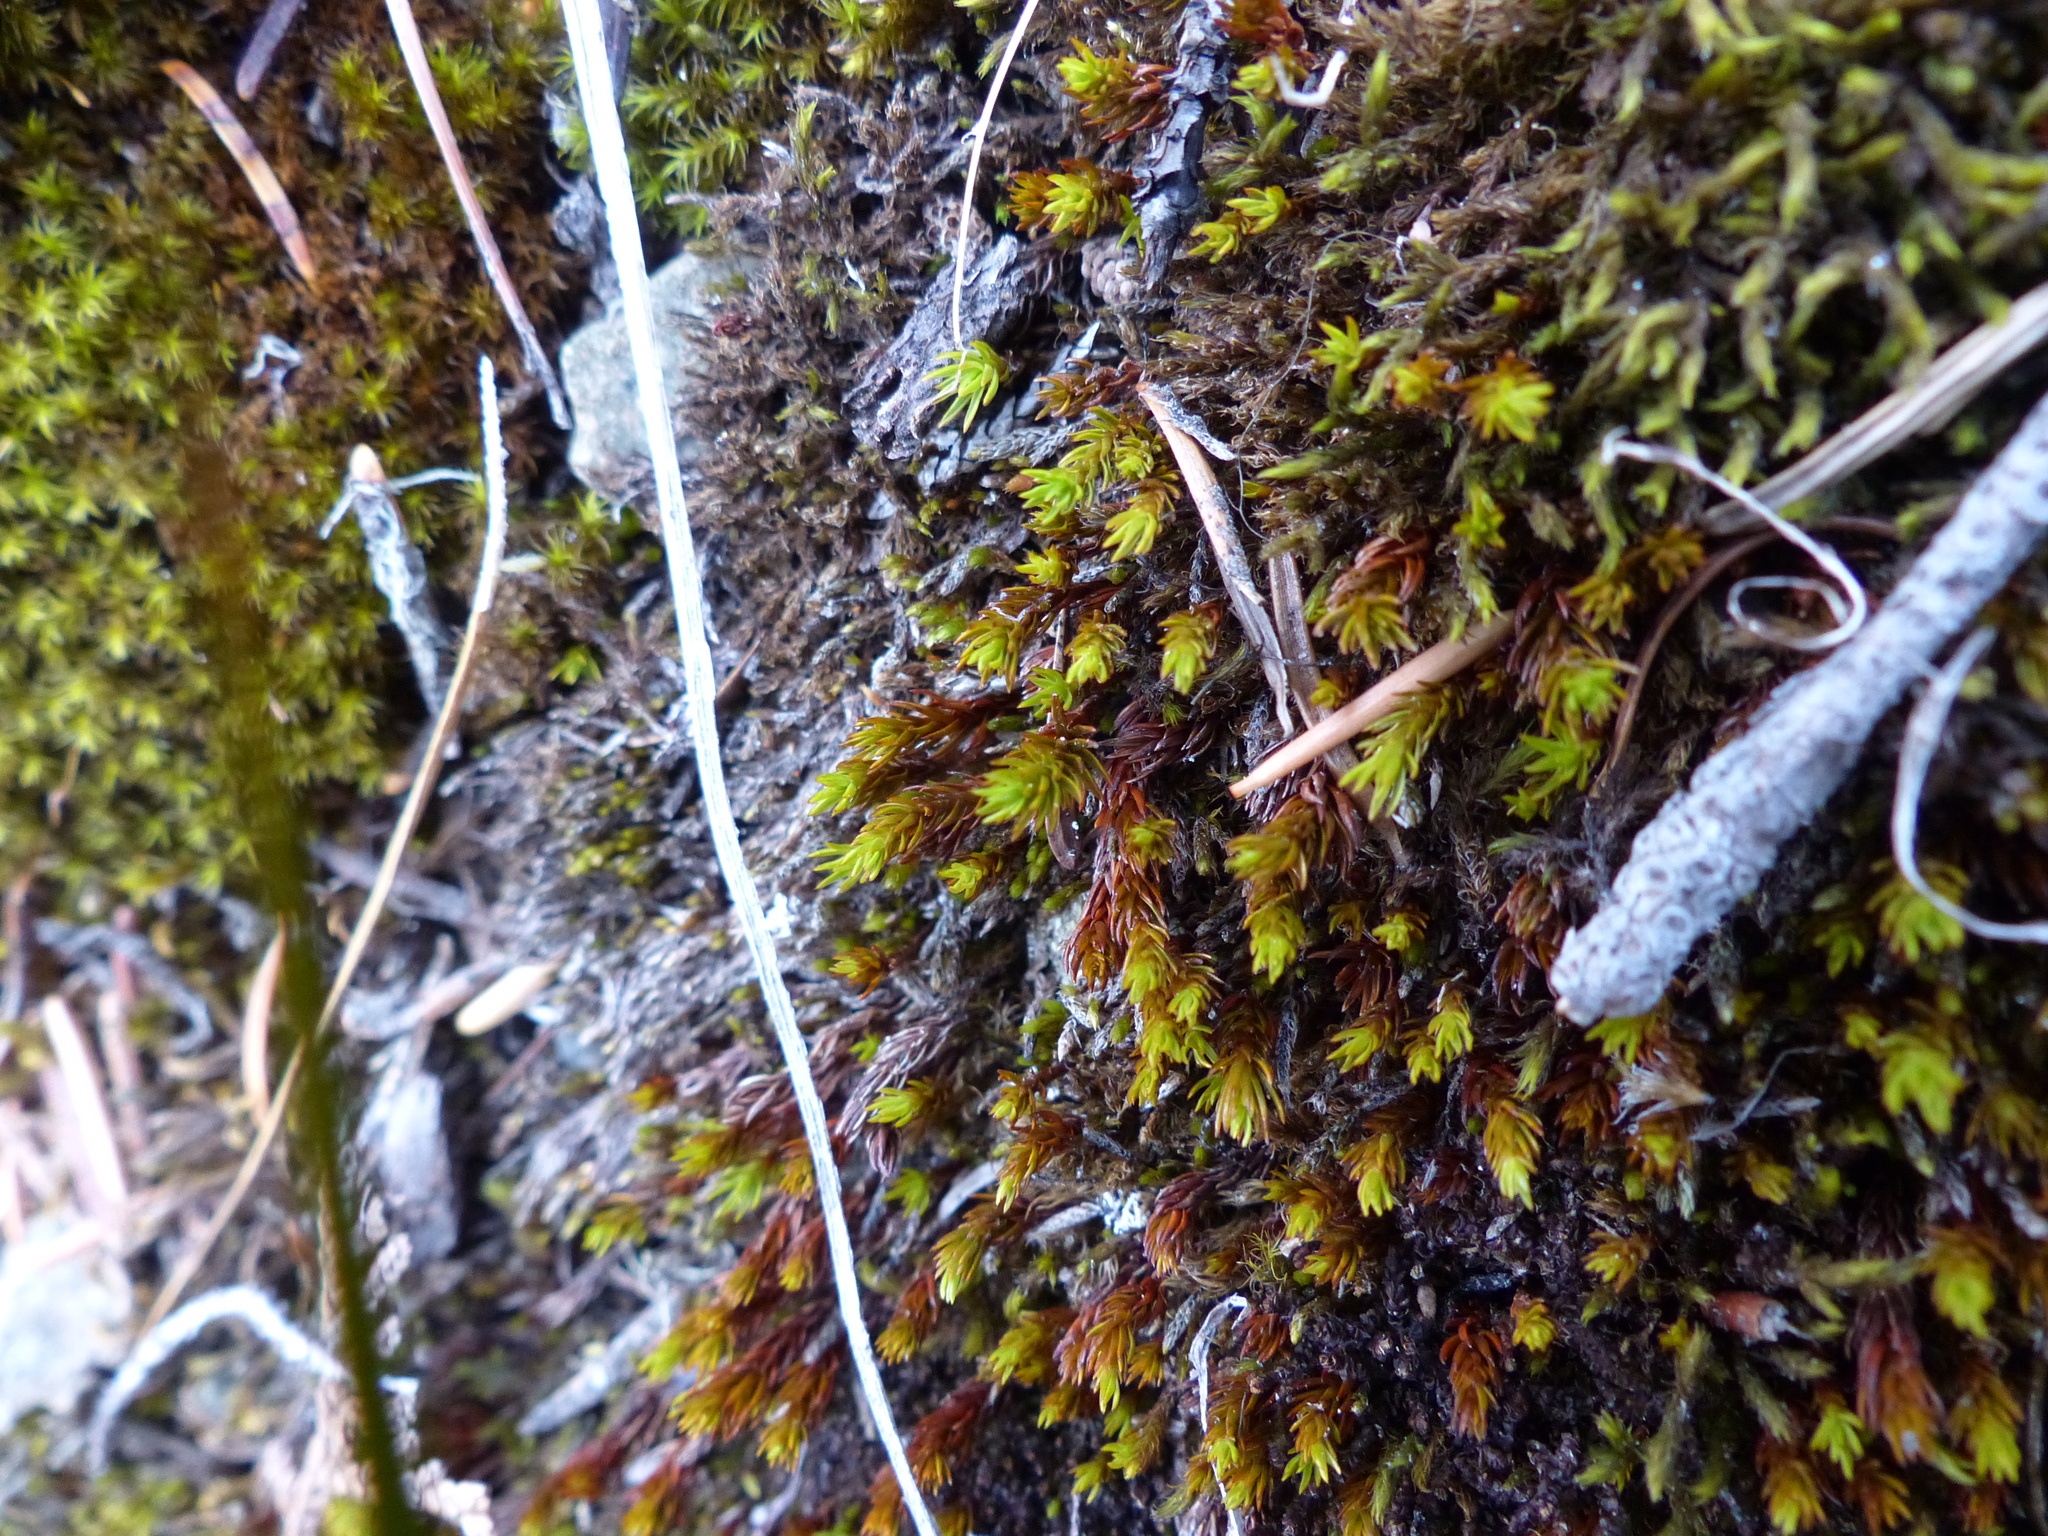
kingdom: Plantae
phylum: Bryophyta
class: Polytrichopsida
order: Polytrichales
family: Polytrichaceae
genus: Polytrichastrum
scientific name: Polytrichastrum sexangulare
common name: Northern haircap
